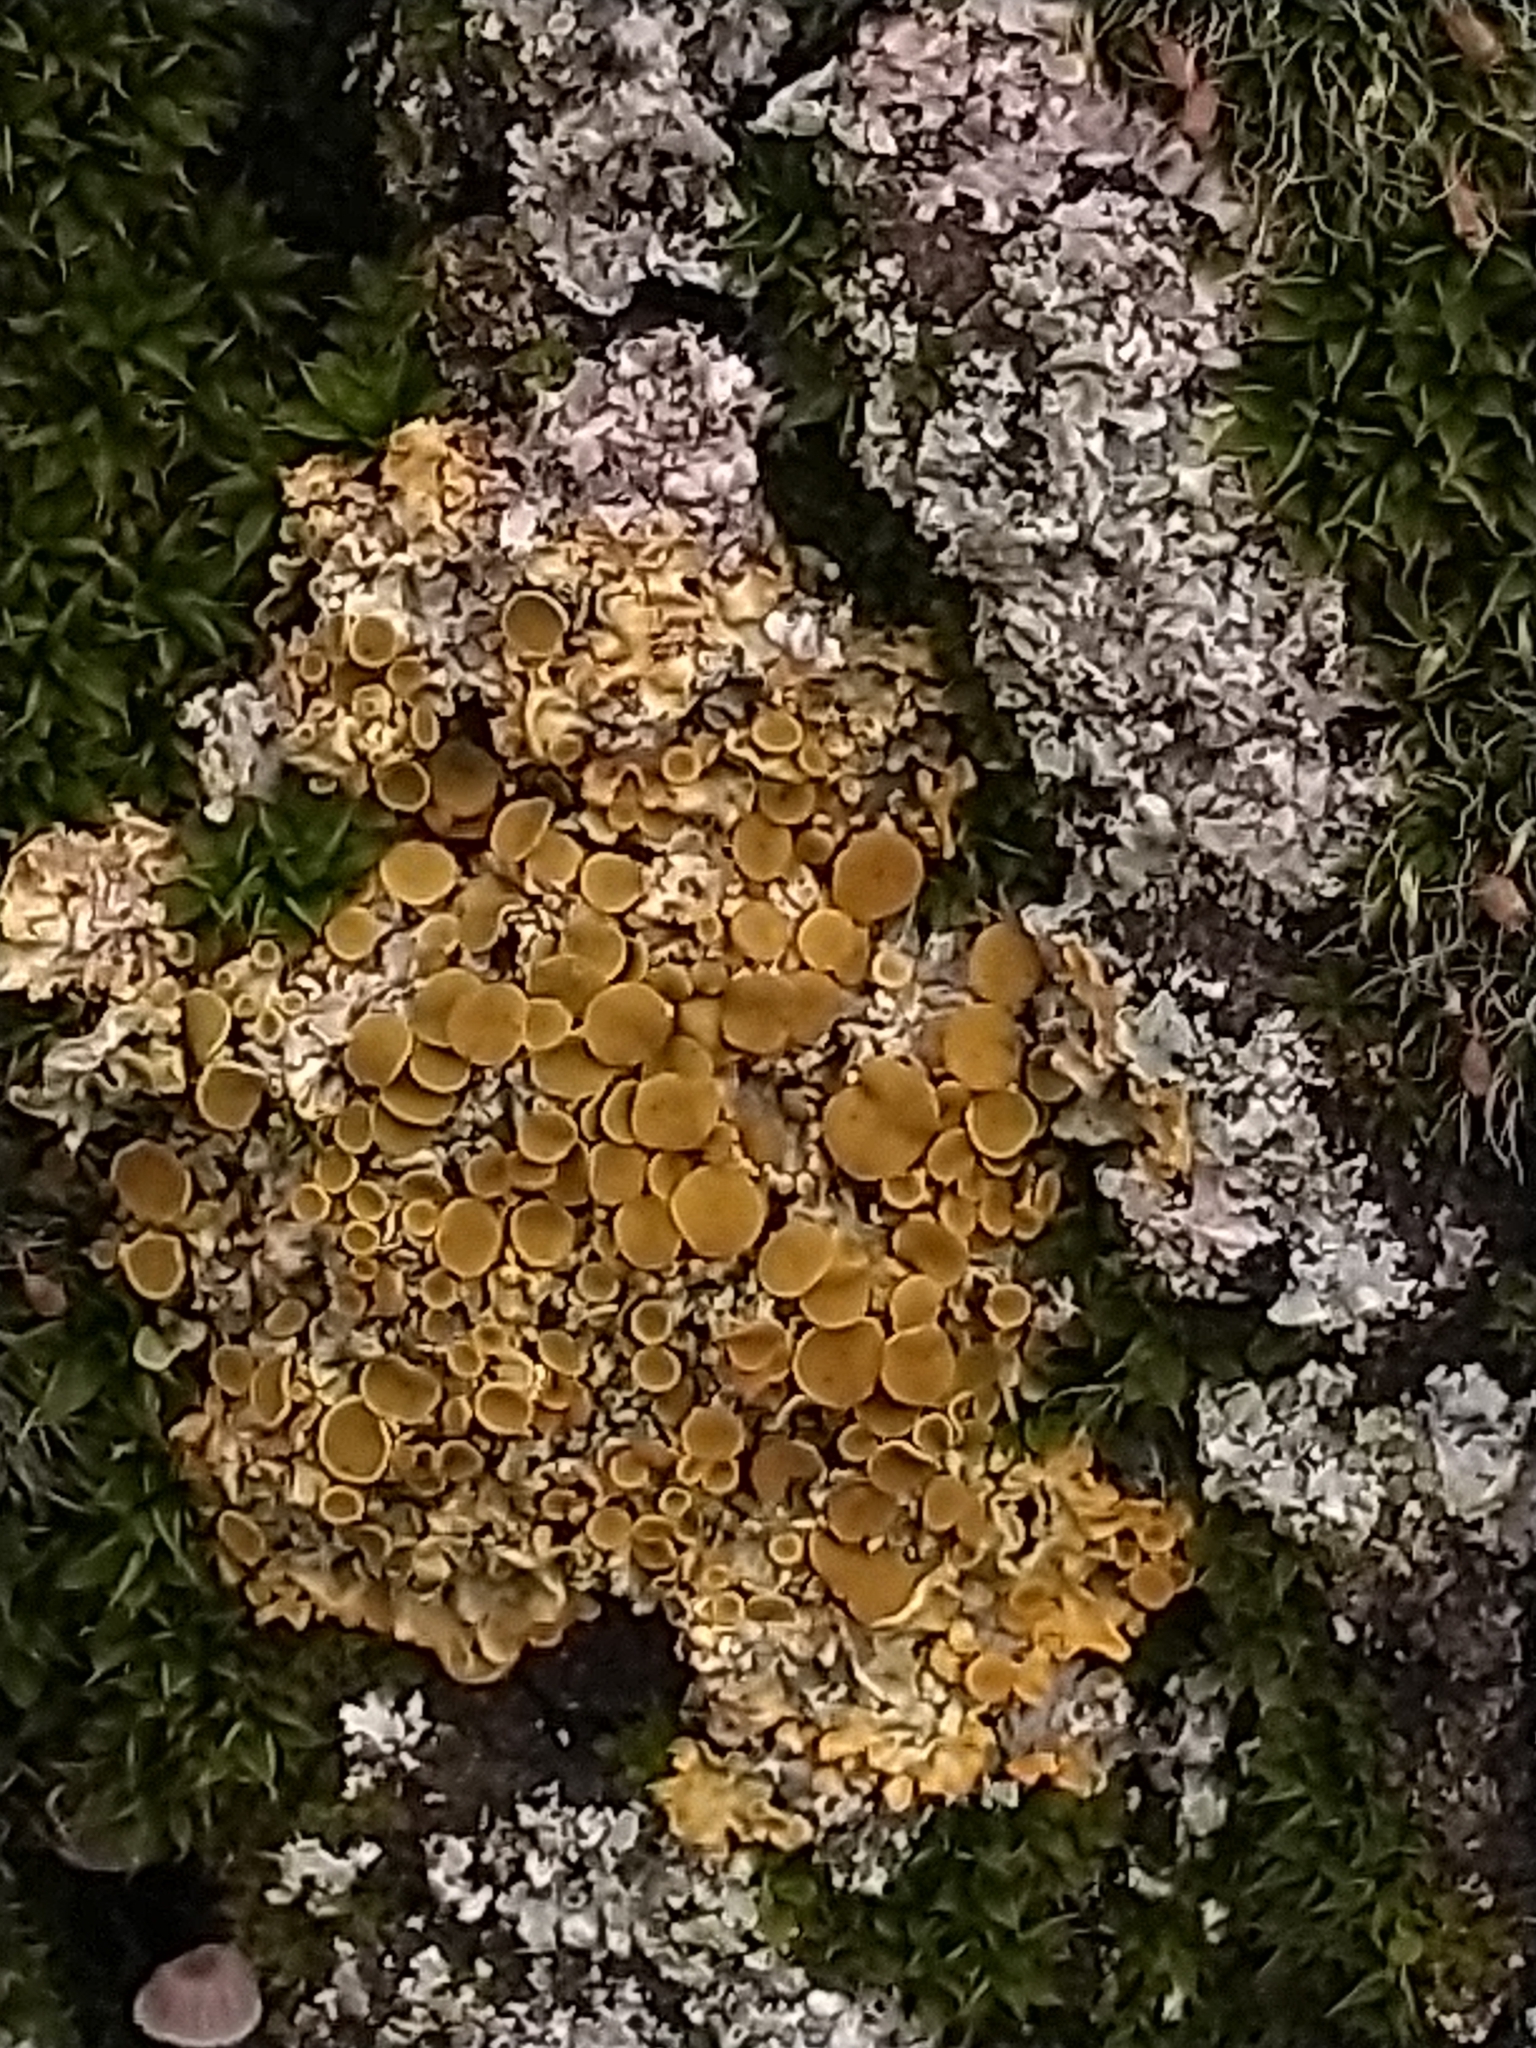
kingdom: Fungi
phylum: Ascomycota
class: Lecanoromycetes
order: Teloschistales
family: Teloschistaceae
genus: Xanthoria
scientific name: Xanthoria parietina
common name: Common orange lichen
